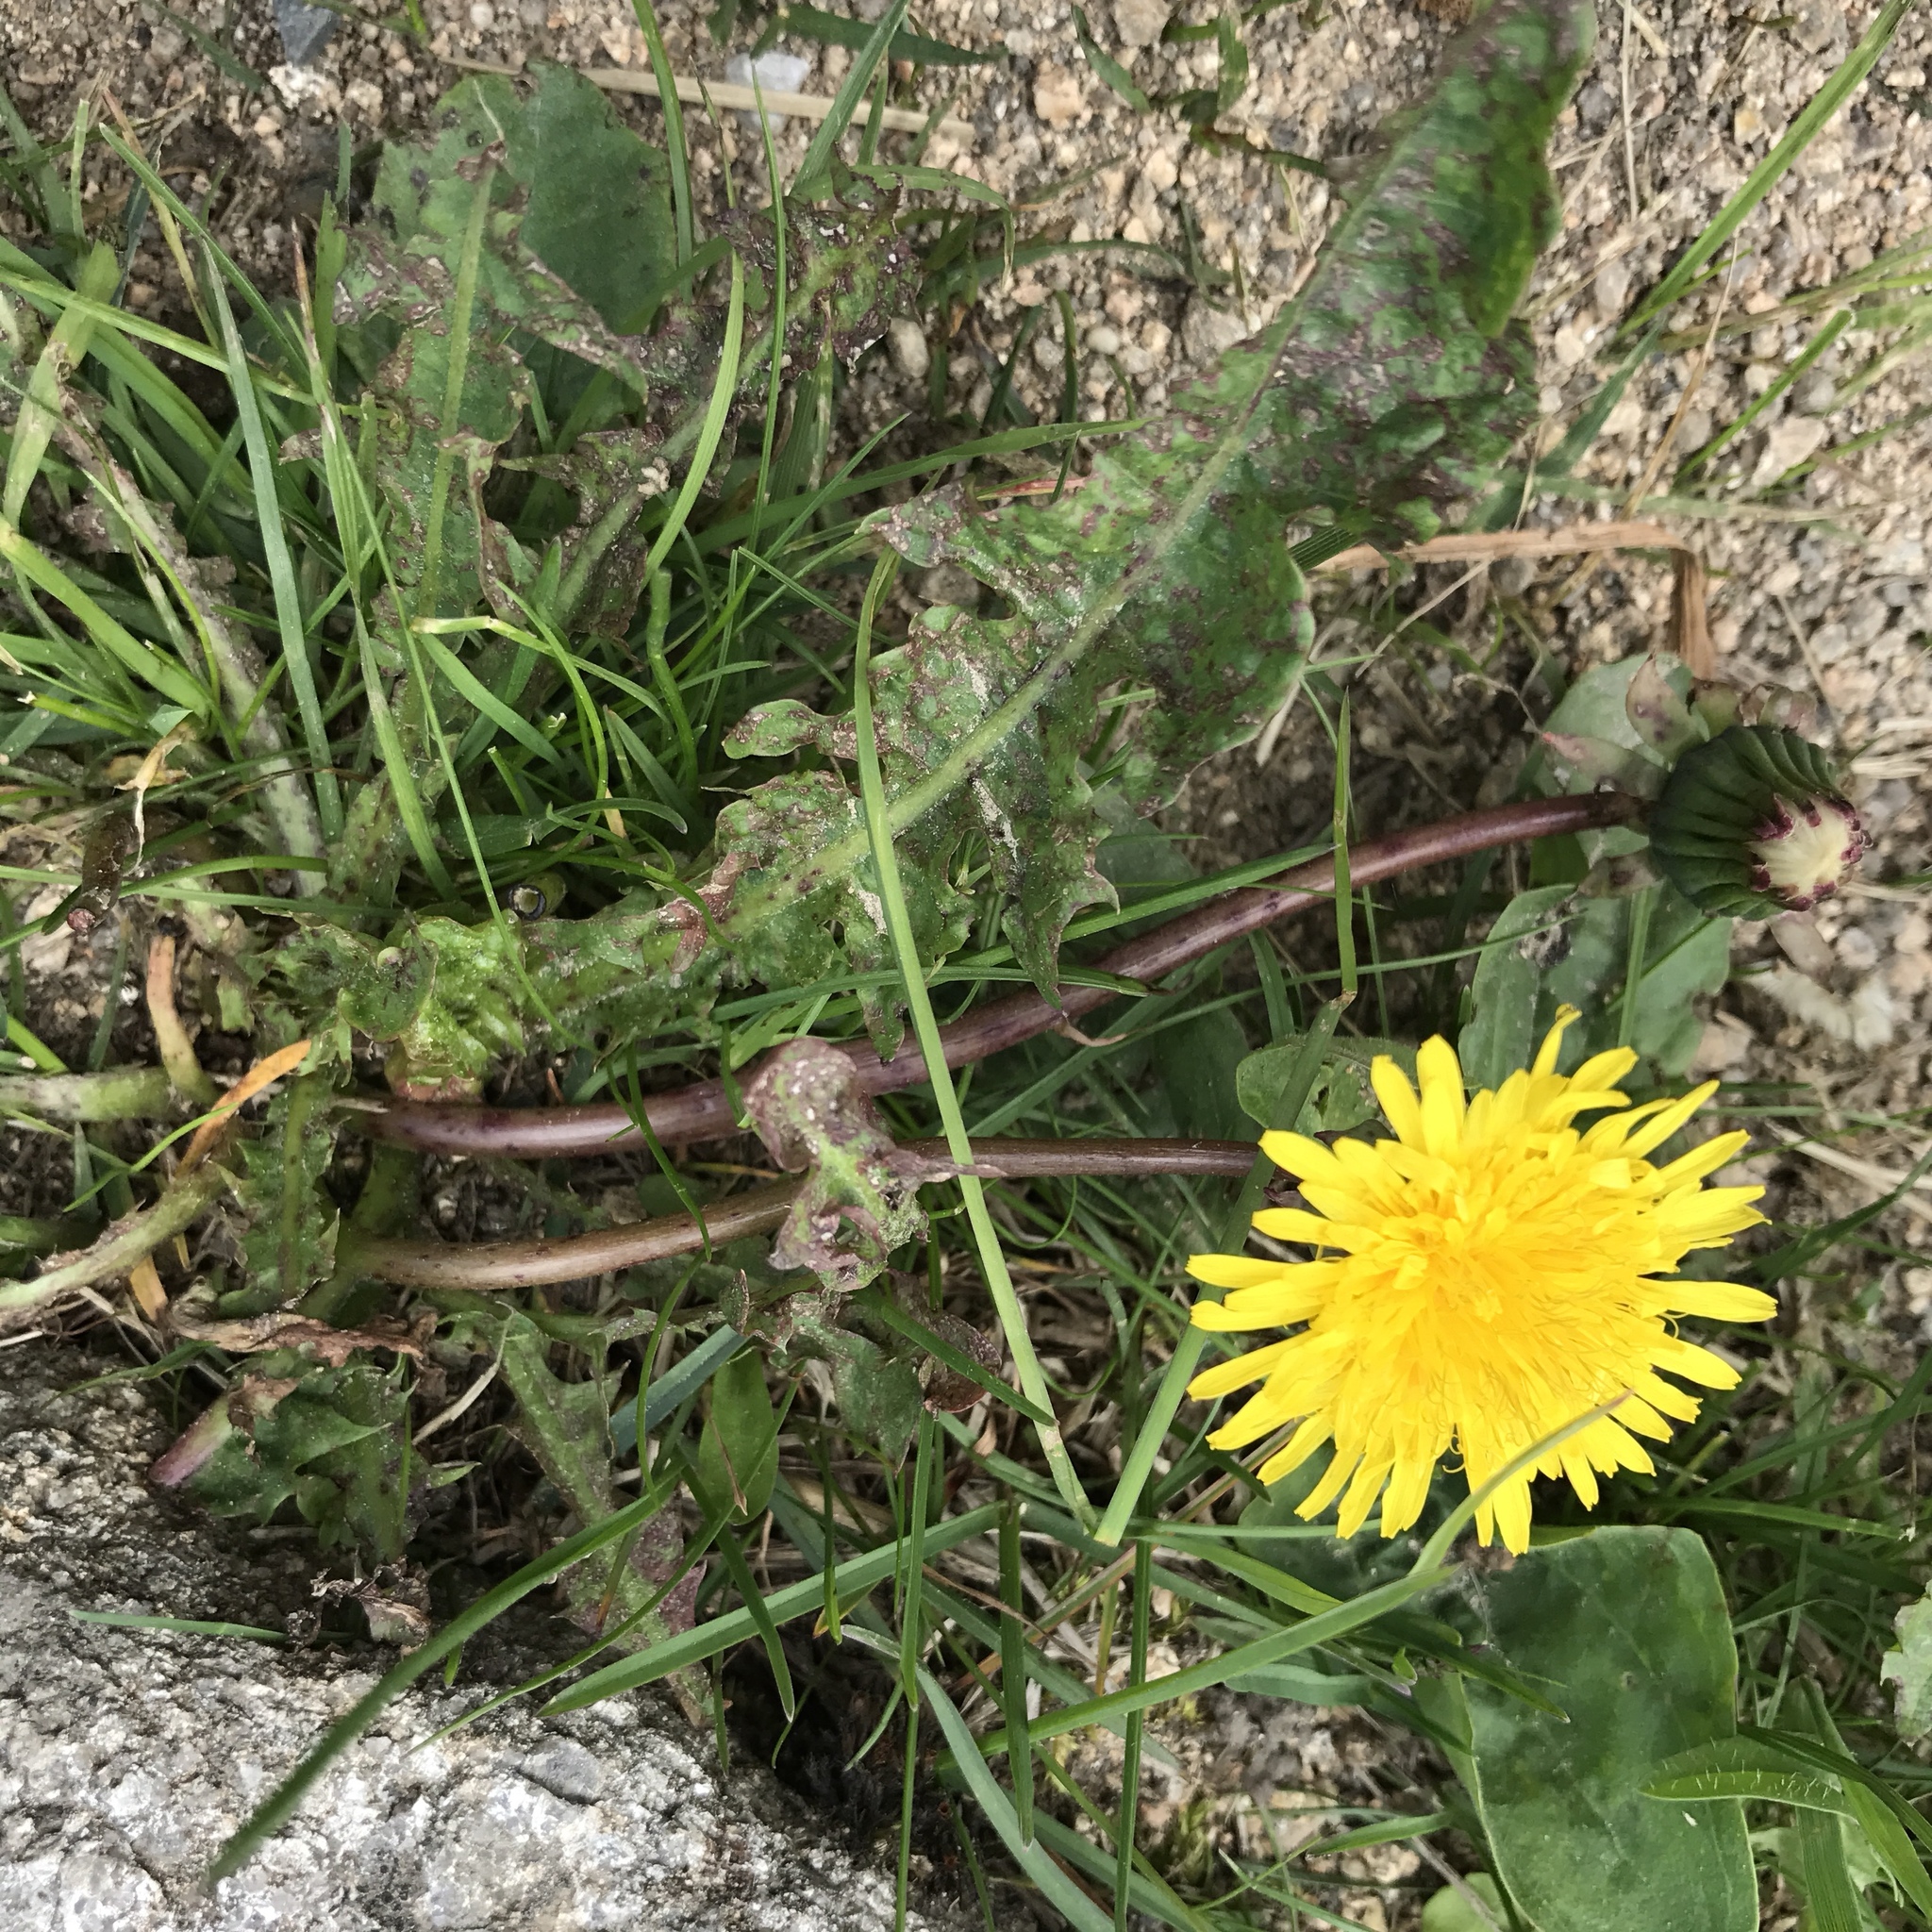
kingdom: Plantae
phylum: Tracheophyta
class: Magnoliopsida
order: Asterales
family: Asteraceae
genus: Taraxacum
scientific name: Taraxacum officinale
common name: Common dandelion
